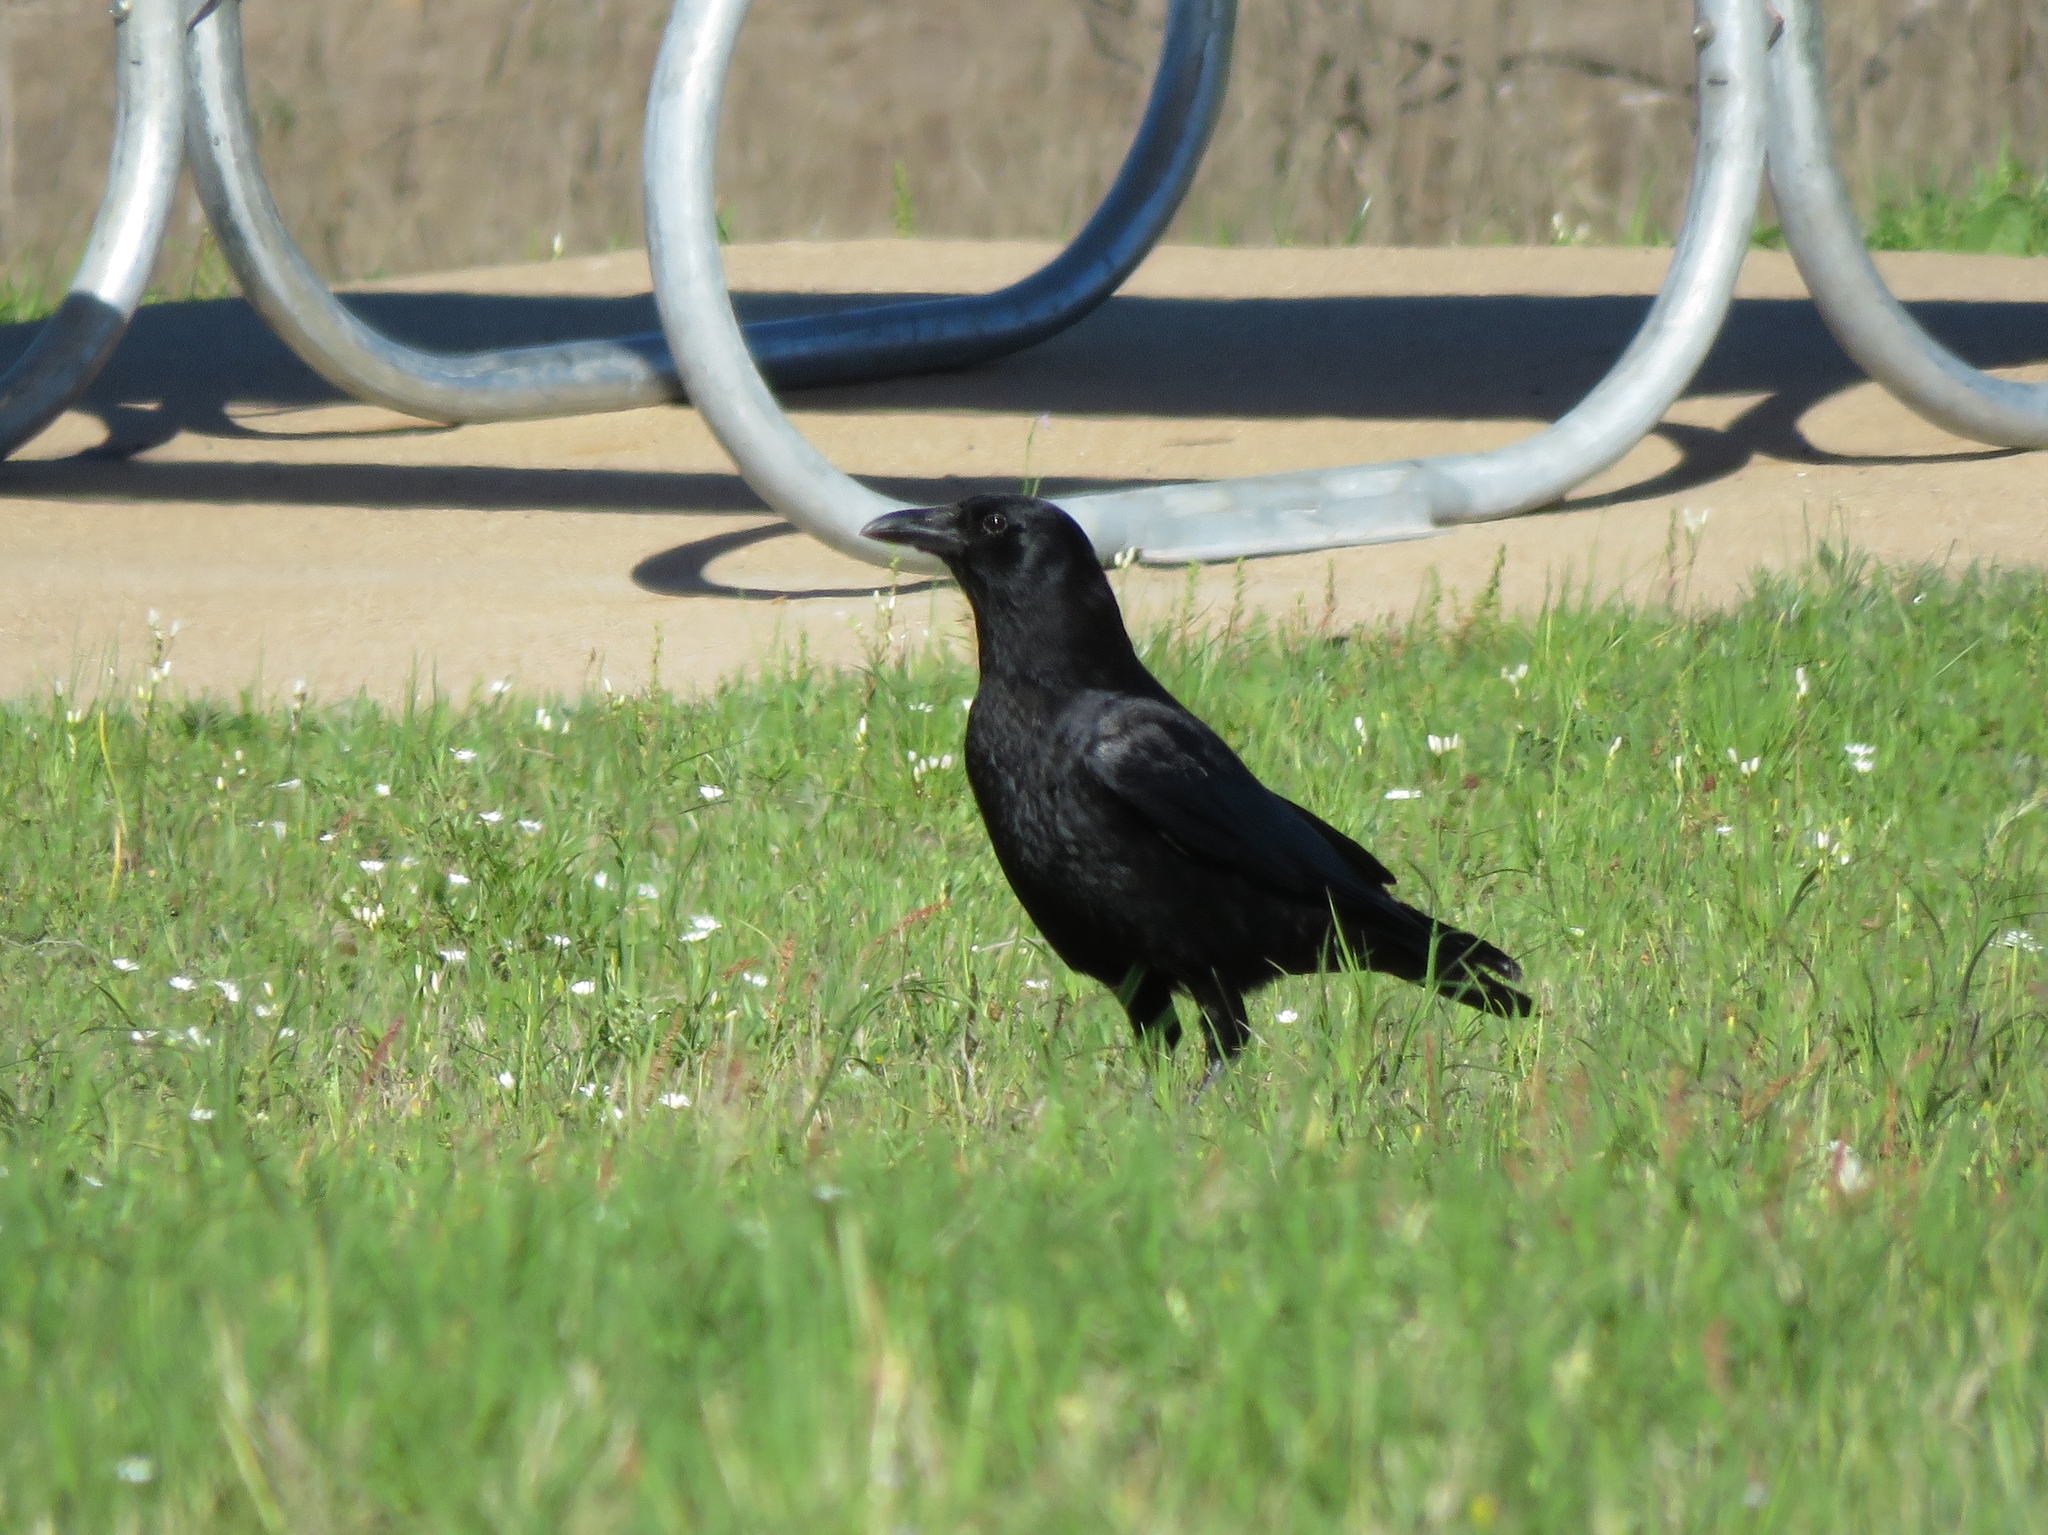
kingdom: Animalia
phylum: Chordata
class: Aves
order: Passeriformes
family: Corvidae
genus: Corvus
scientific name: Corvus brachyrhynchos
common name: American crow
